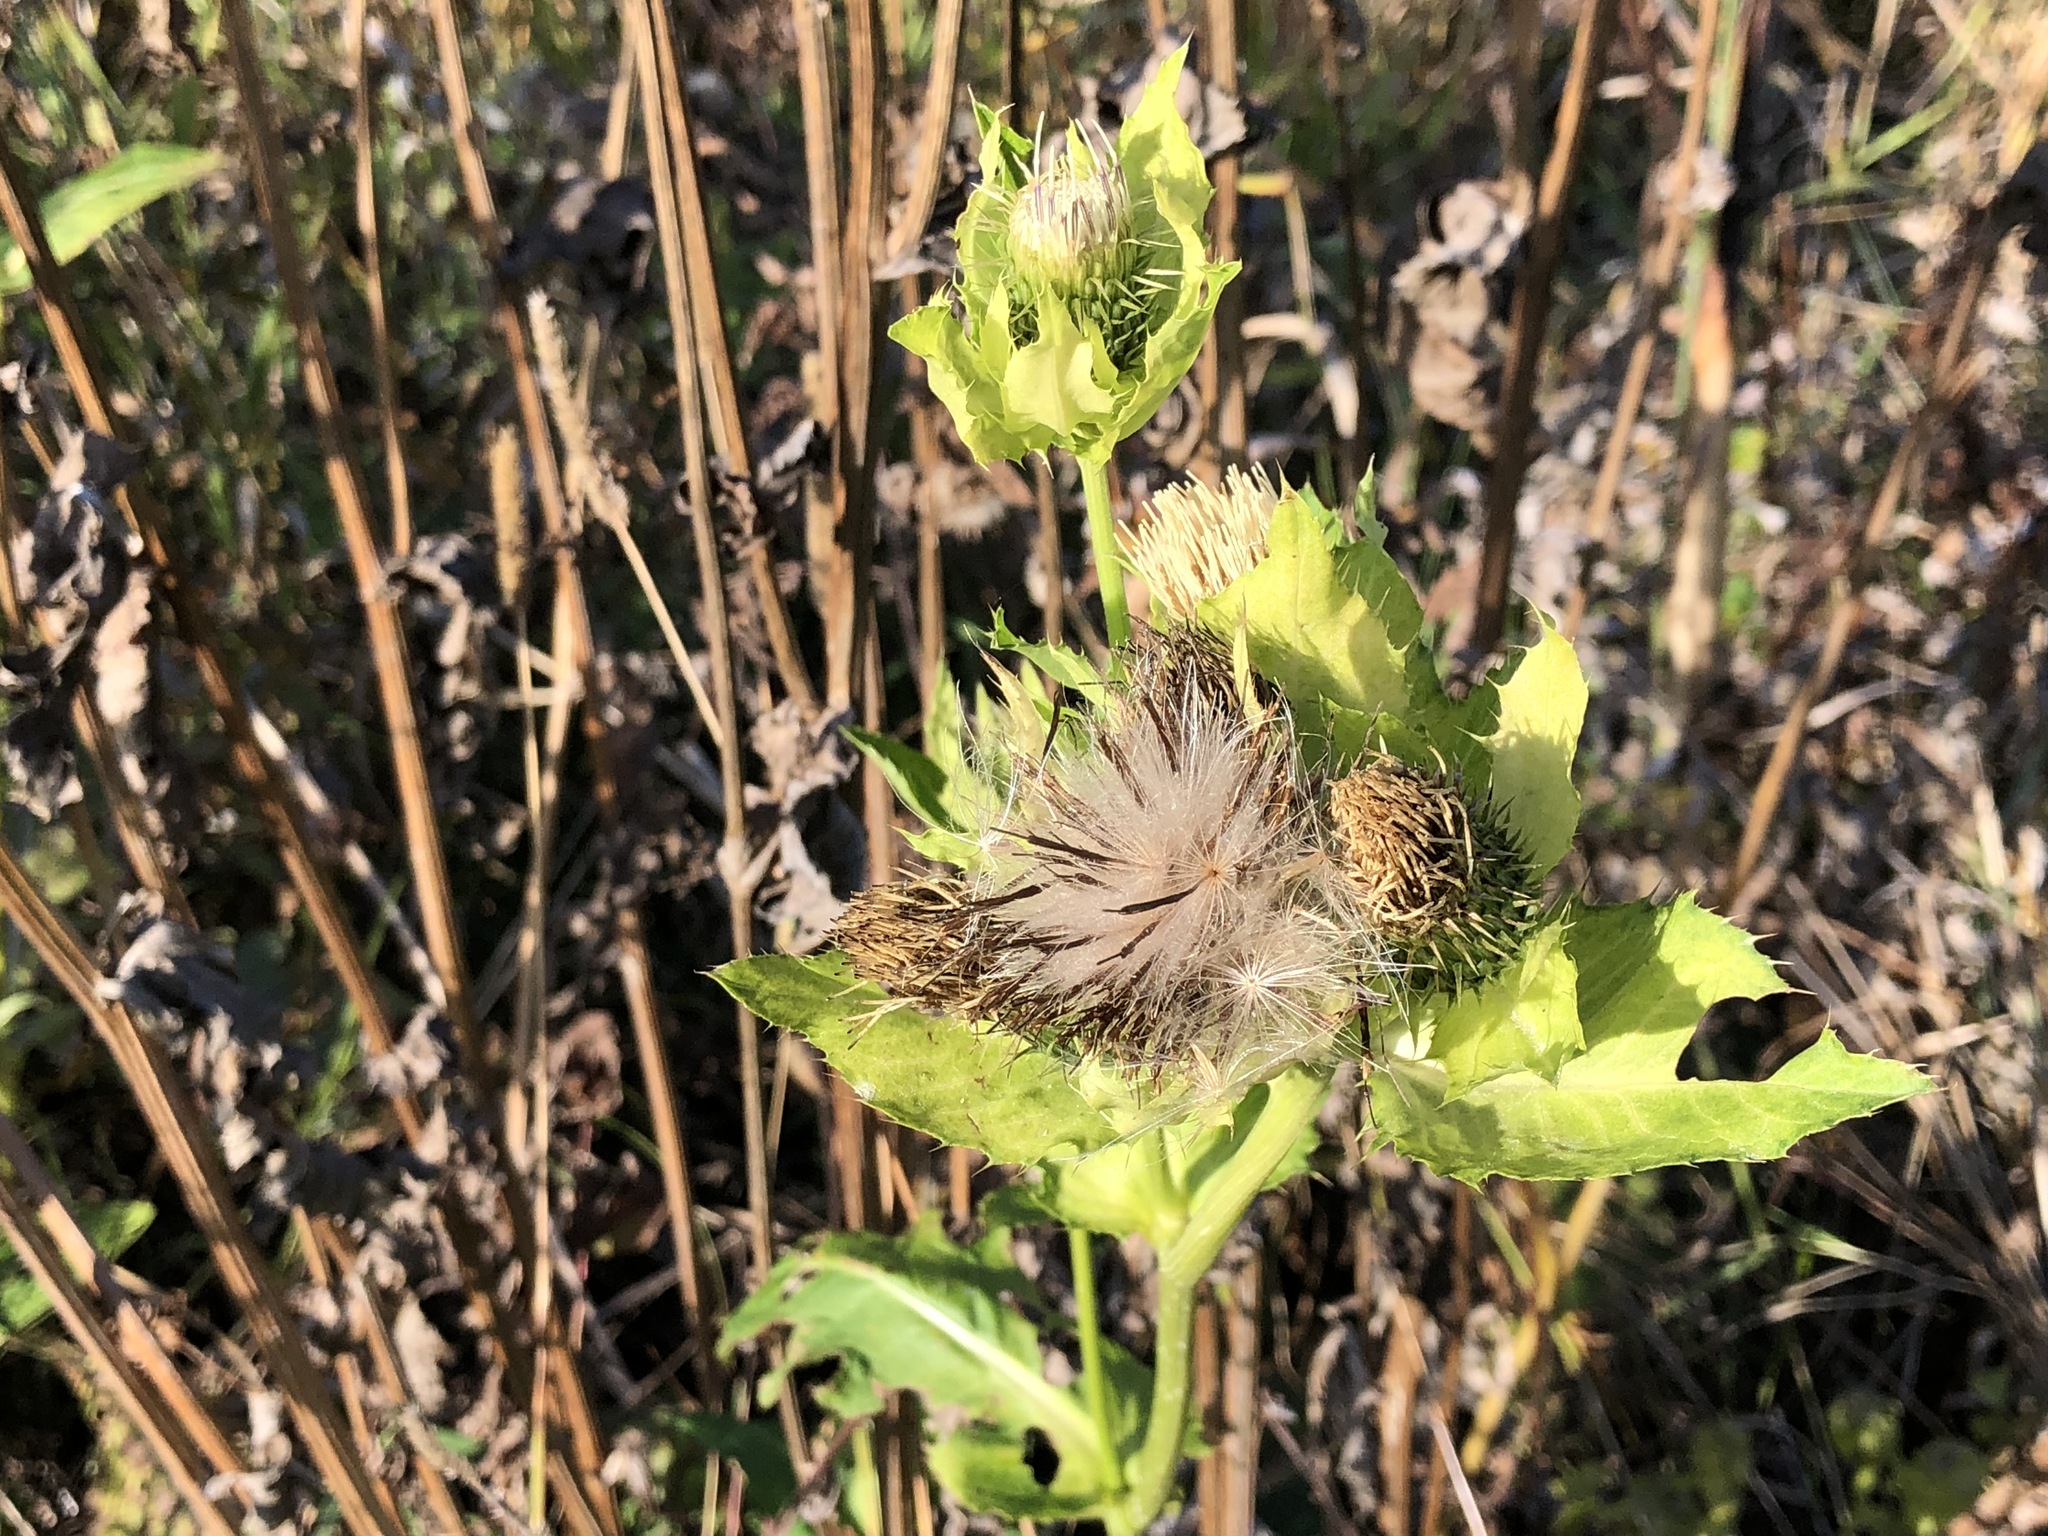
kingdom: Plantae
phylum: Tracheophyta
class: Magnoliopsida
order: Asterales
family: Asteraceae
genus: Cirsium
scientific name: Cirsium oleraceum
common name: Cabbage thistle
